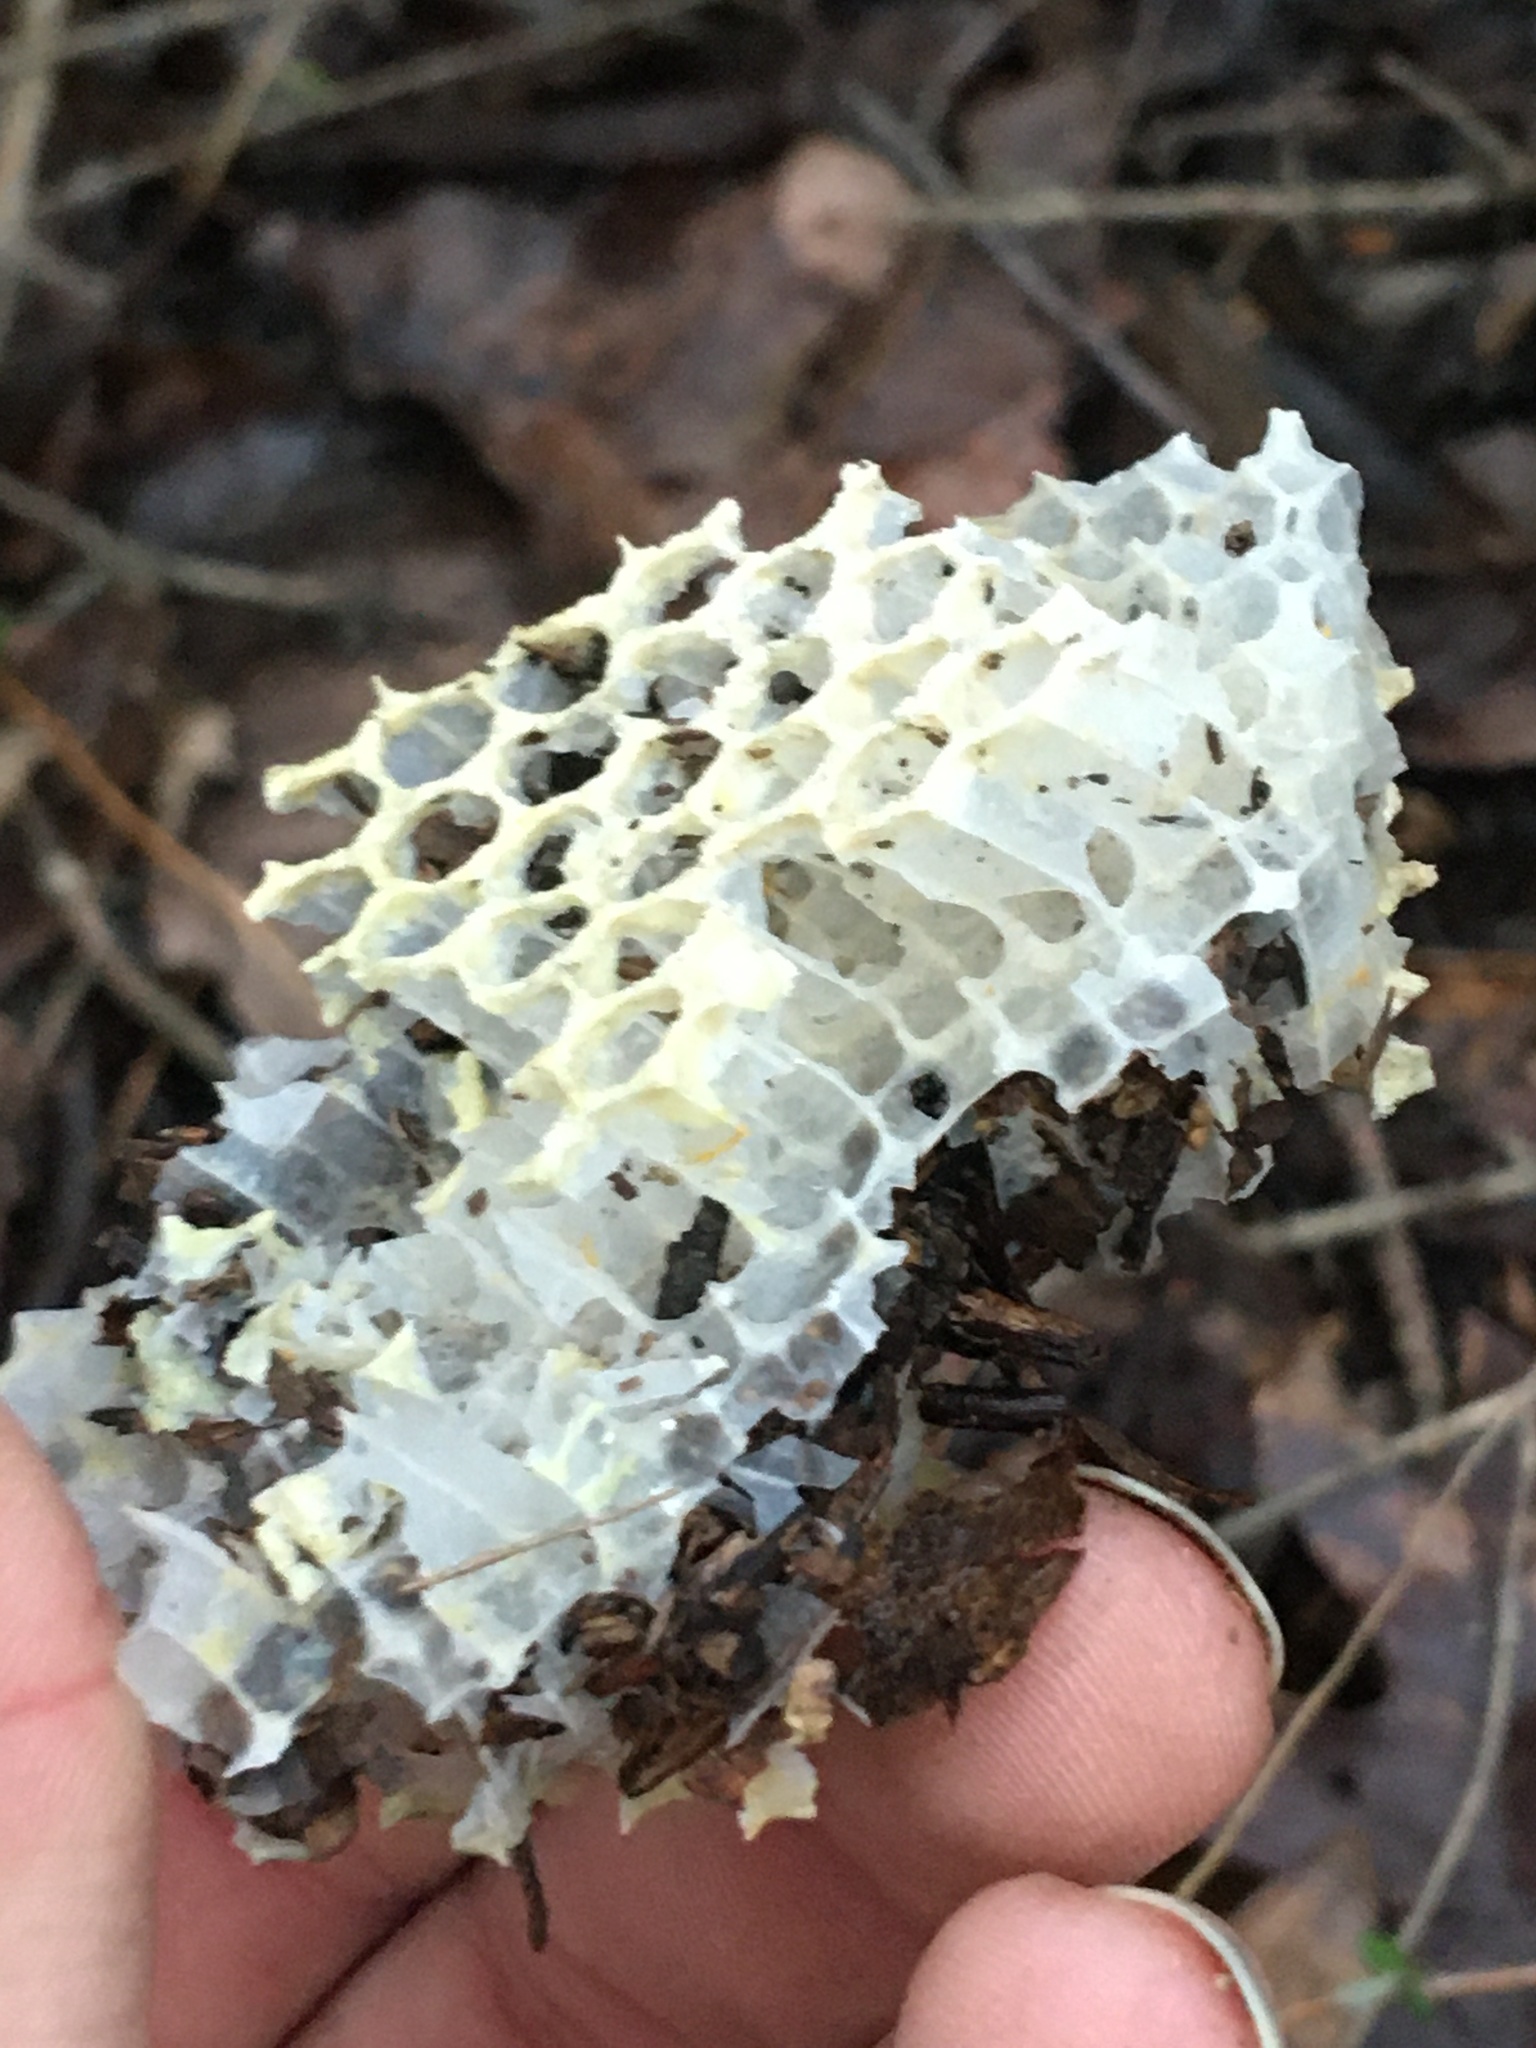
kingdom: Animalia
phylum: Arthropoda
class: Insecta
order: Hymenoptera
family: Apidae
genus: Apis
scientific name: Apis mellifera
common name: Honey bee
